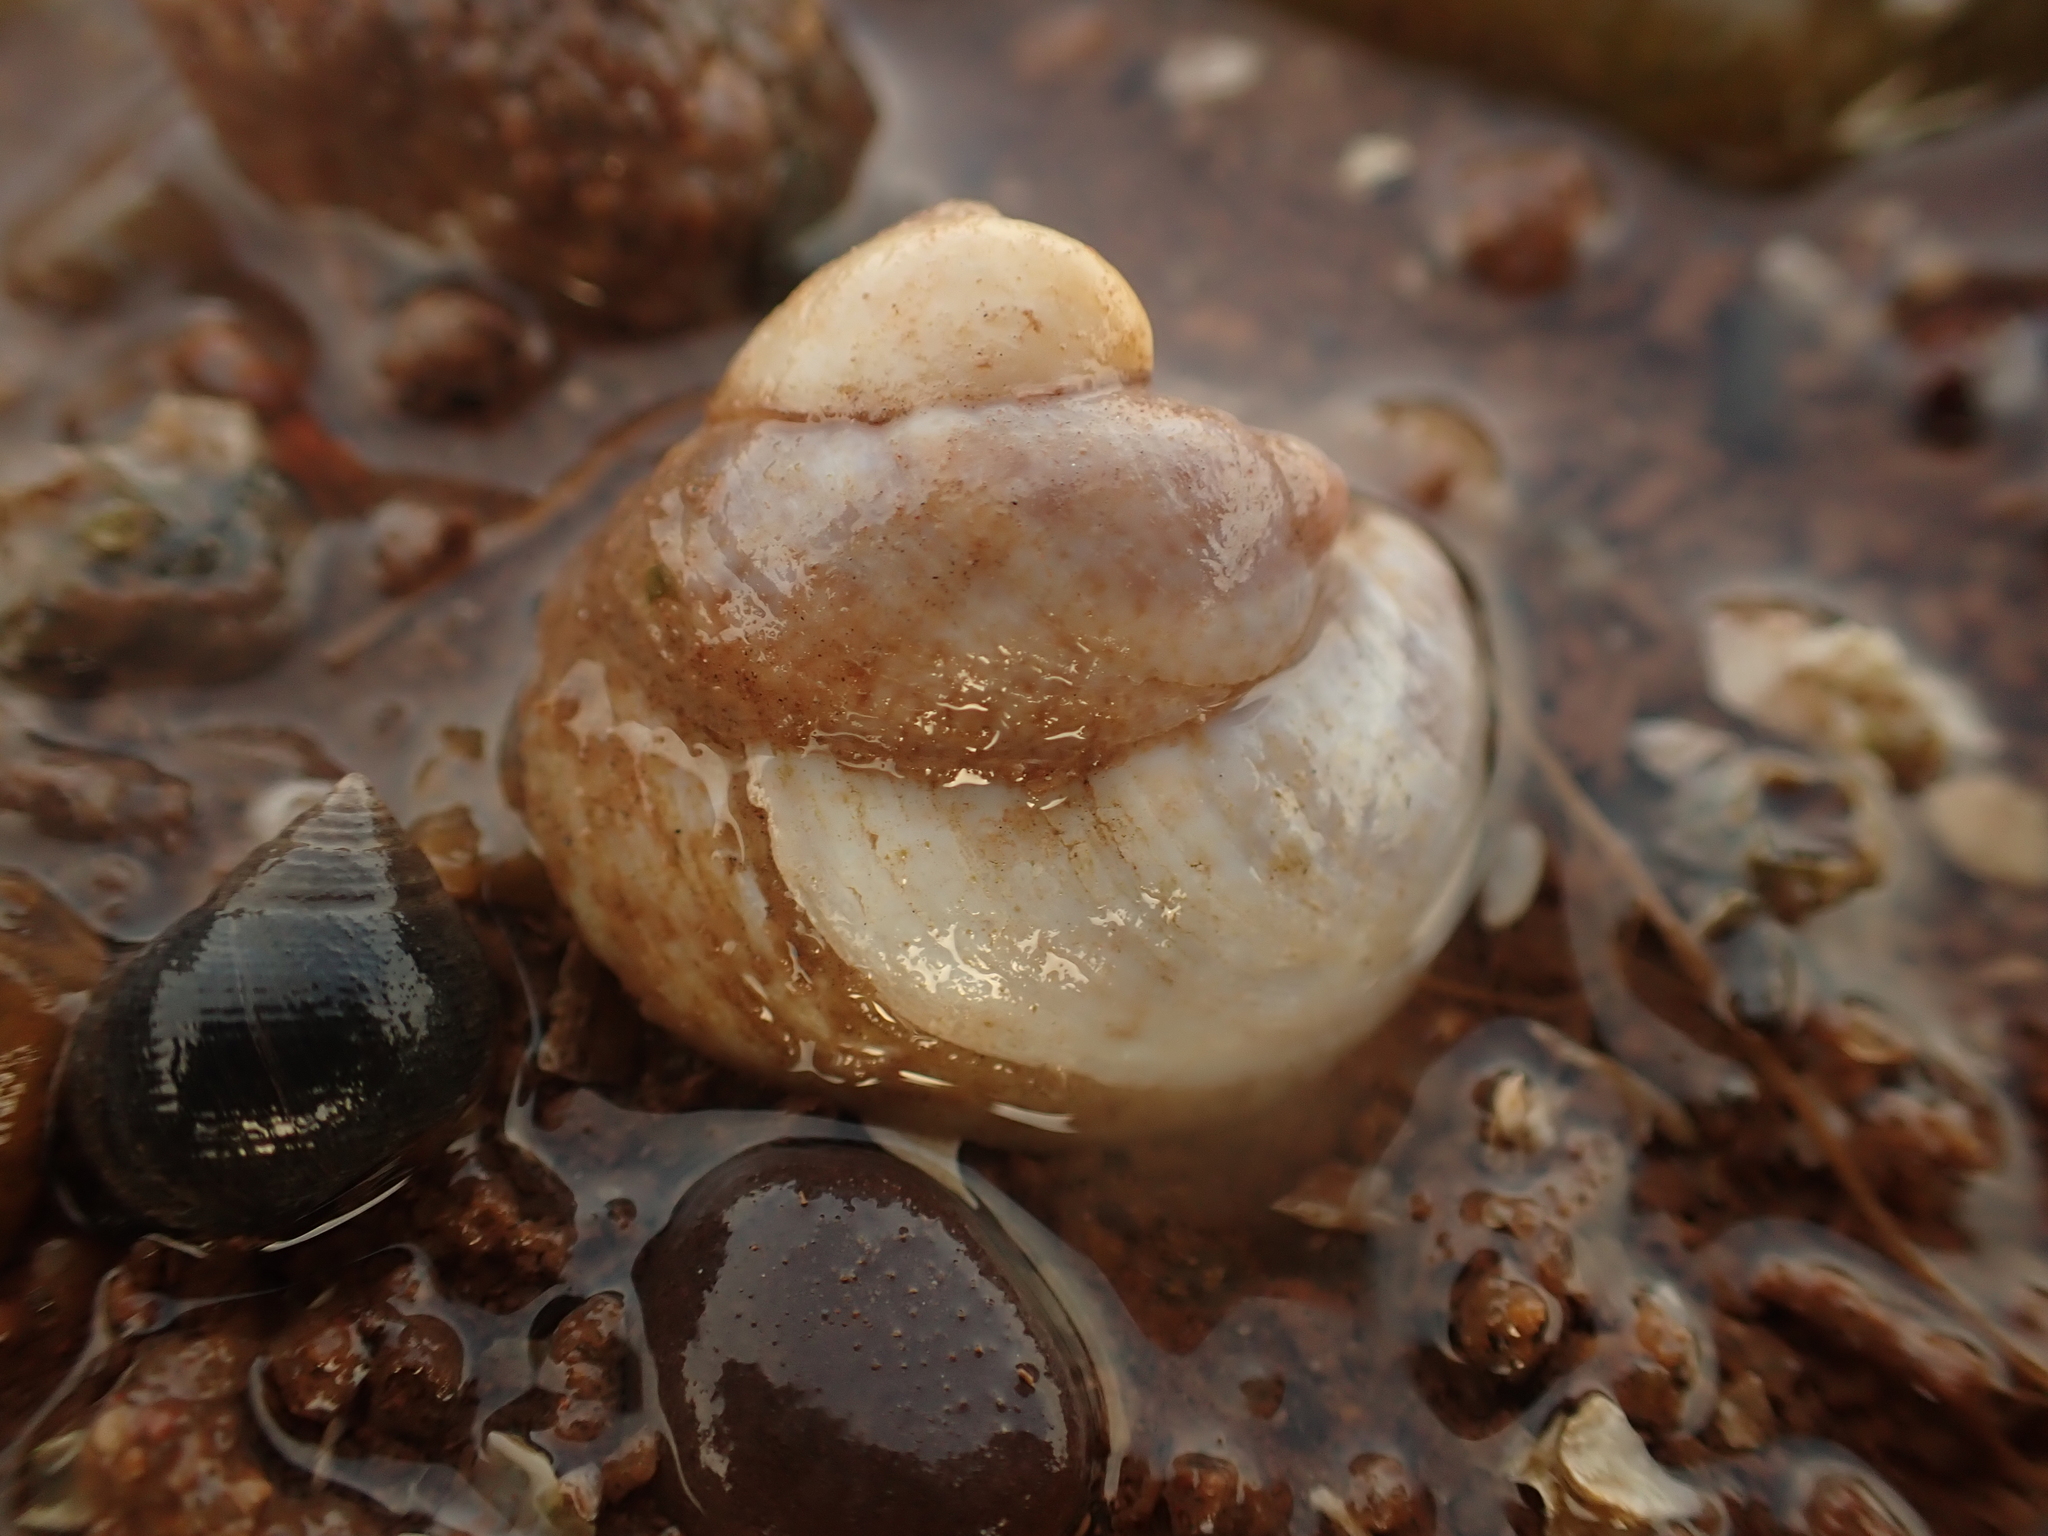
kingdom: Animalia
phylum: Mollusca
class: Gastropoda
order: Littorinimorpha
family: Calyptraeidae
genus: Crepidula
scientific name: Crepidula fornicata
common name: Slipper limpet
